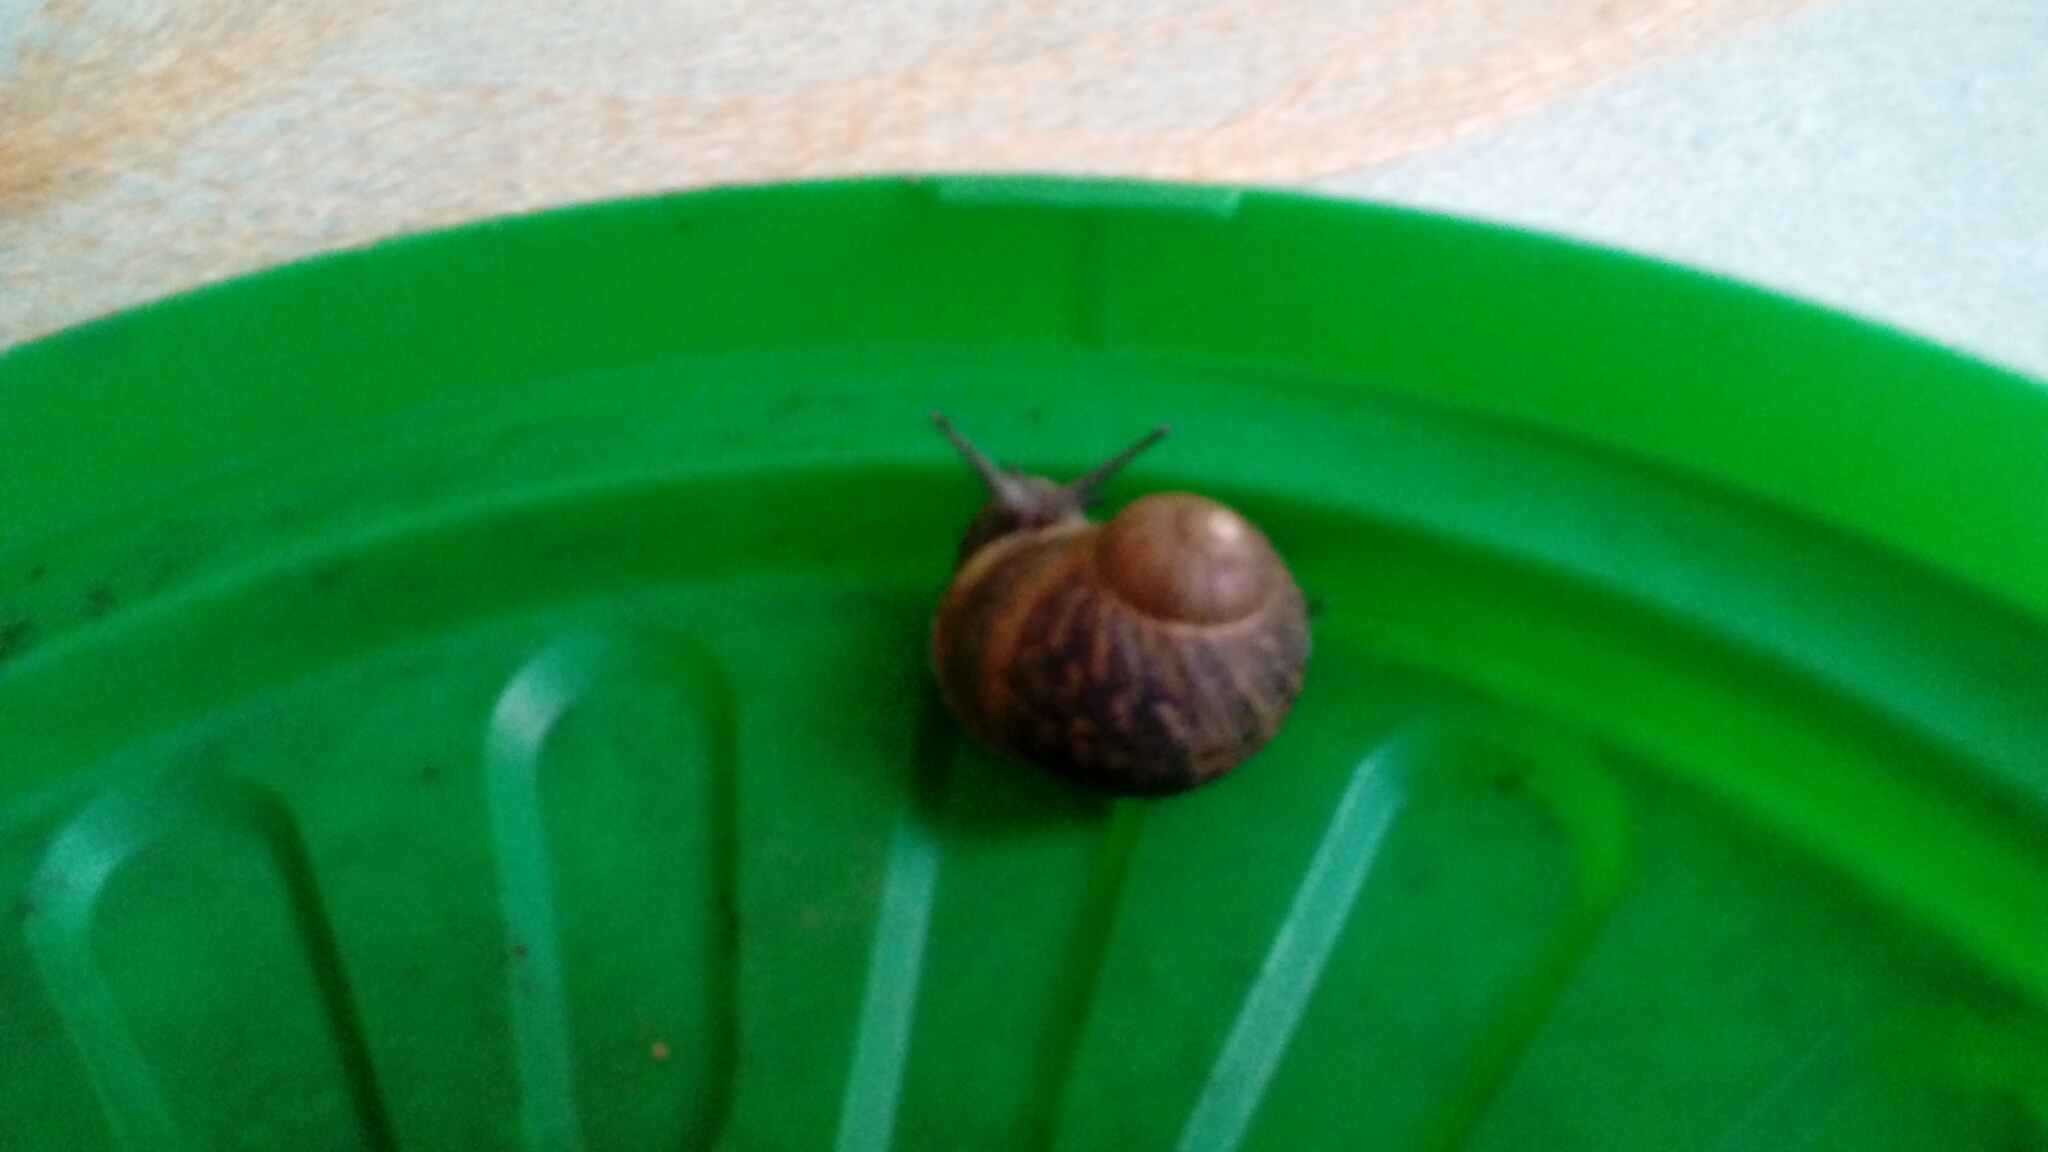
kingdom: Animalia
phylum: Mollusca
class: Gastropoda
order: Stylommatophora
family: Helicidae
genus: Cornu
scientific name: Cornu aspersum
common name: Brown garden snail
